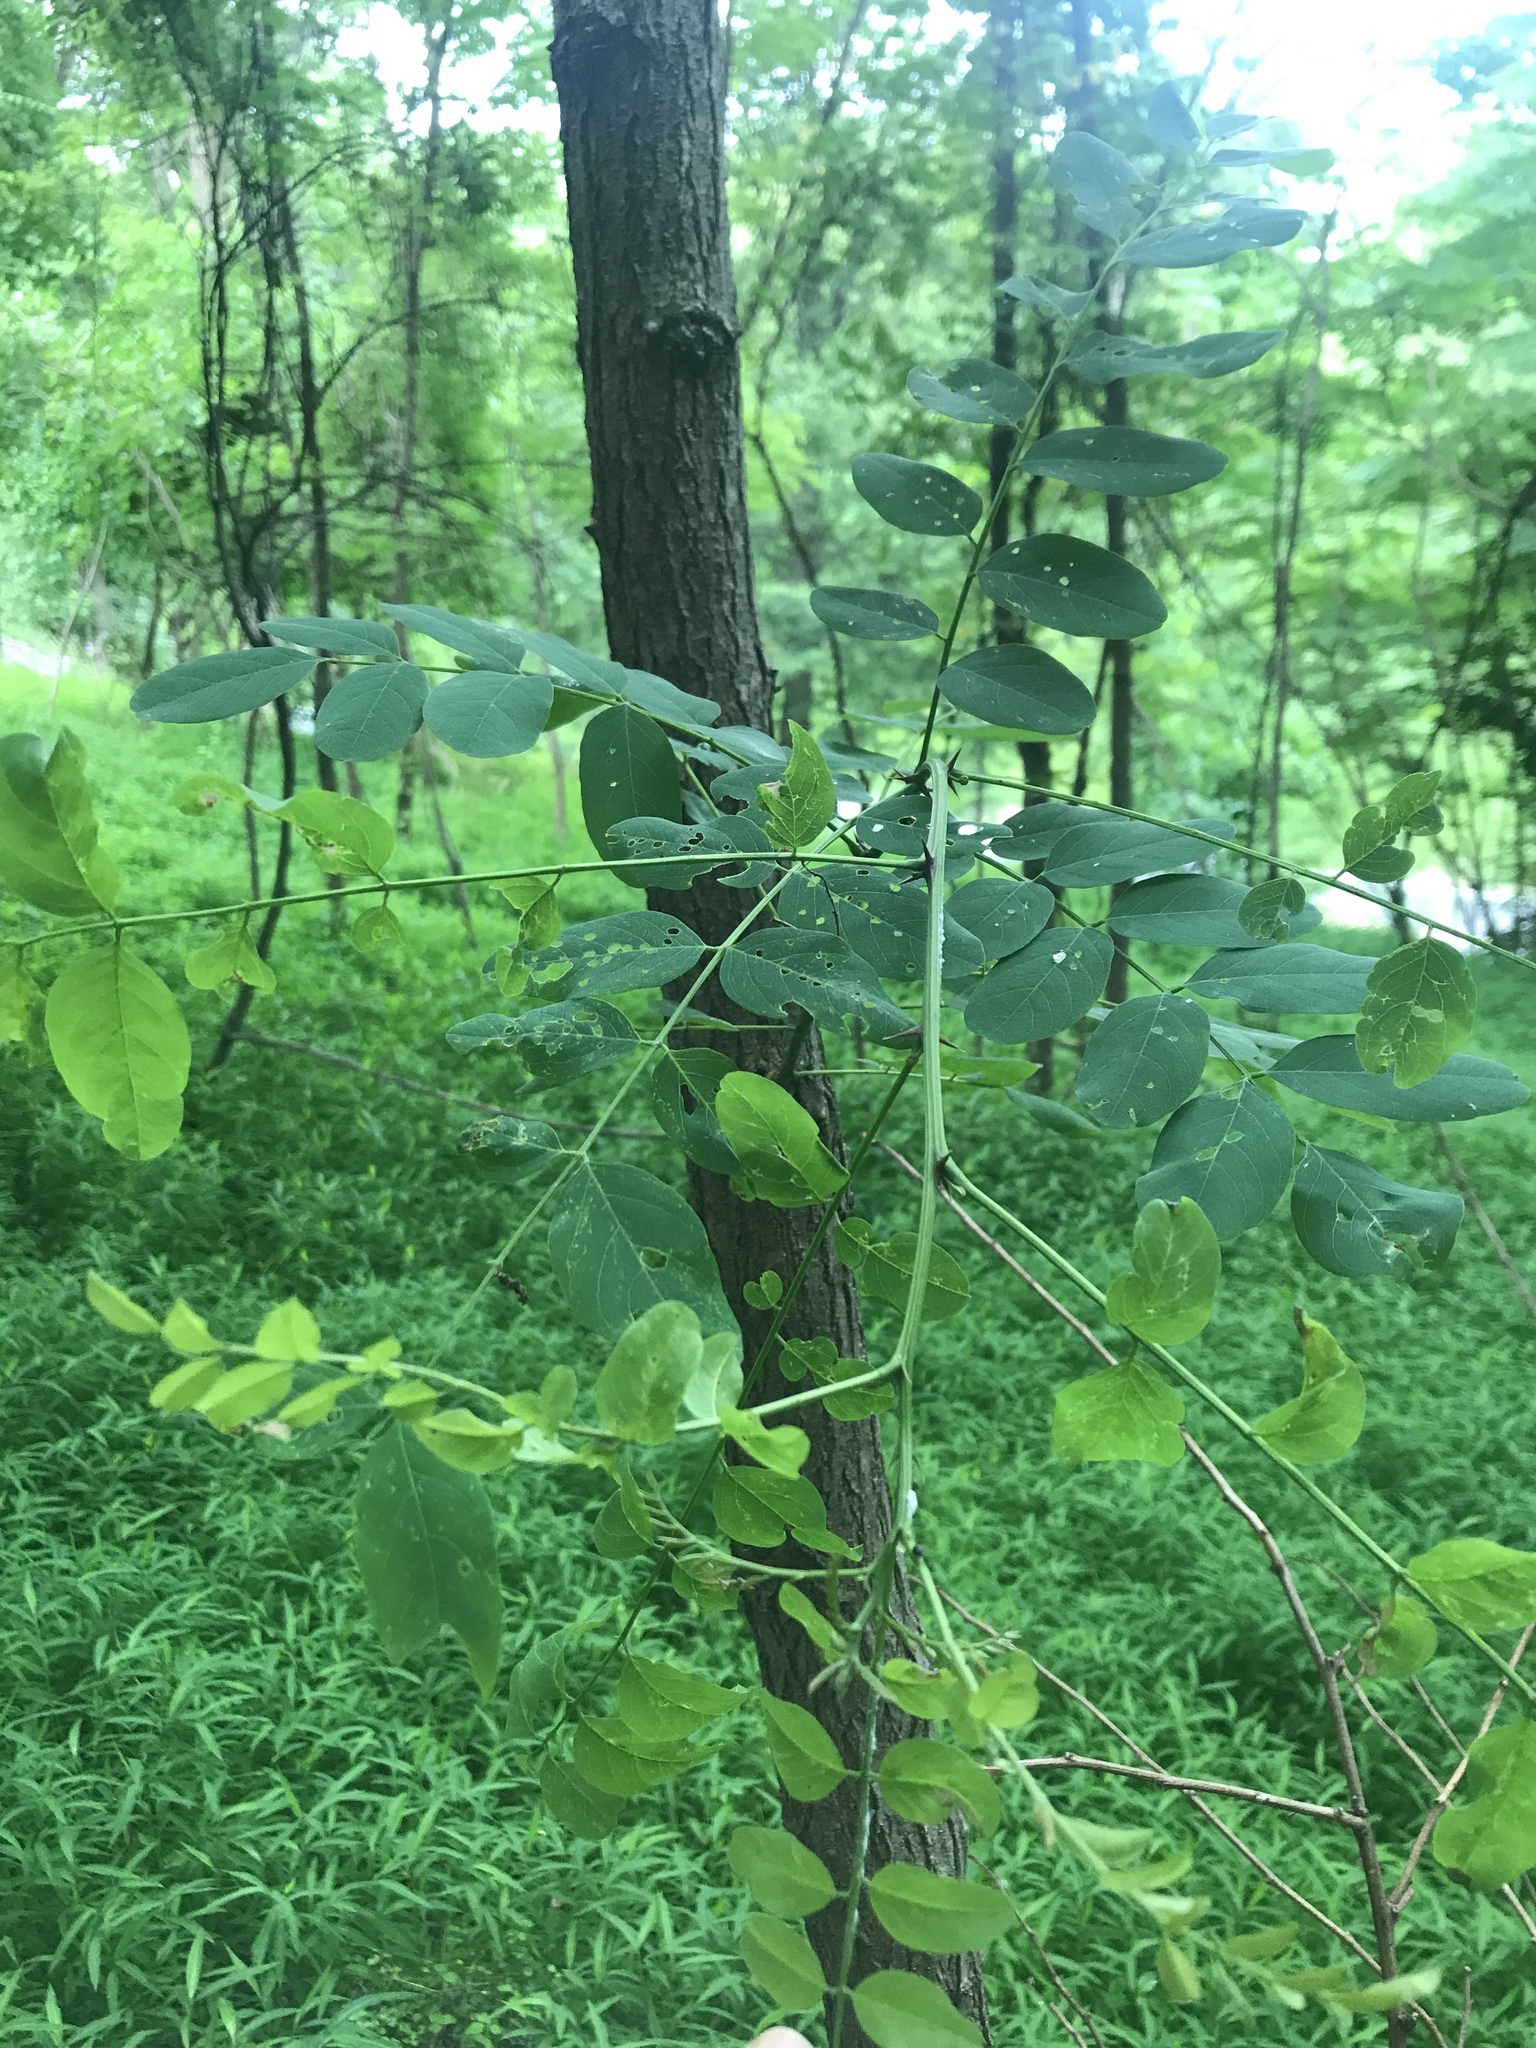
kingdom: Plantae
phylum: Tracheophyta
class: Magnoliopsida
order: Fabales
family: Fabaceae
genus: Robinia
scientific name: Robinia pseudoacacia
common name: Black locust
